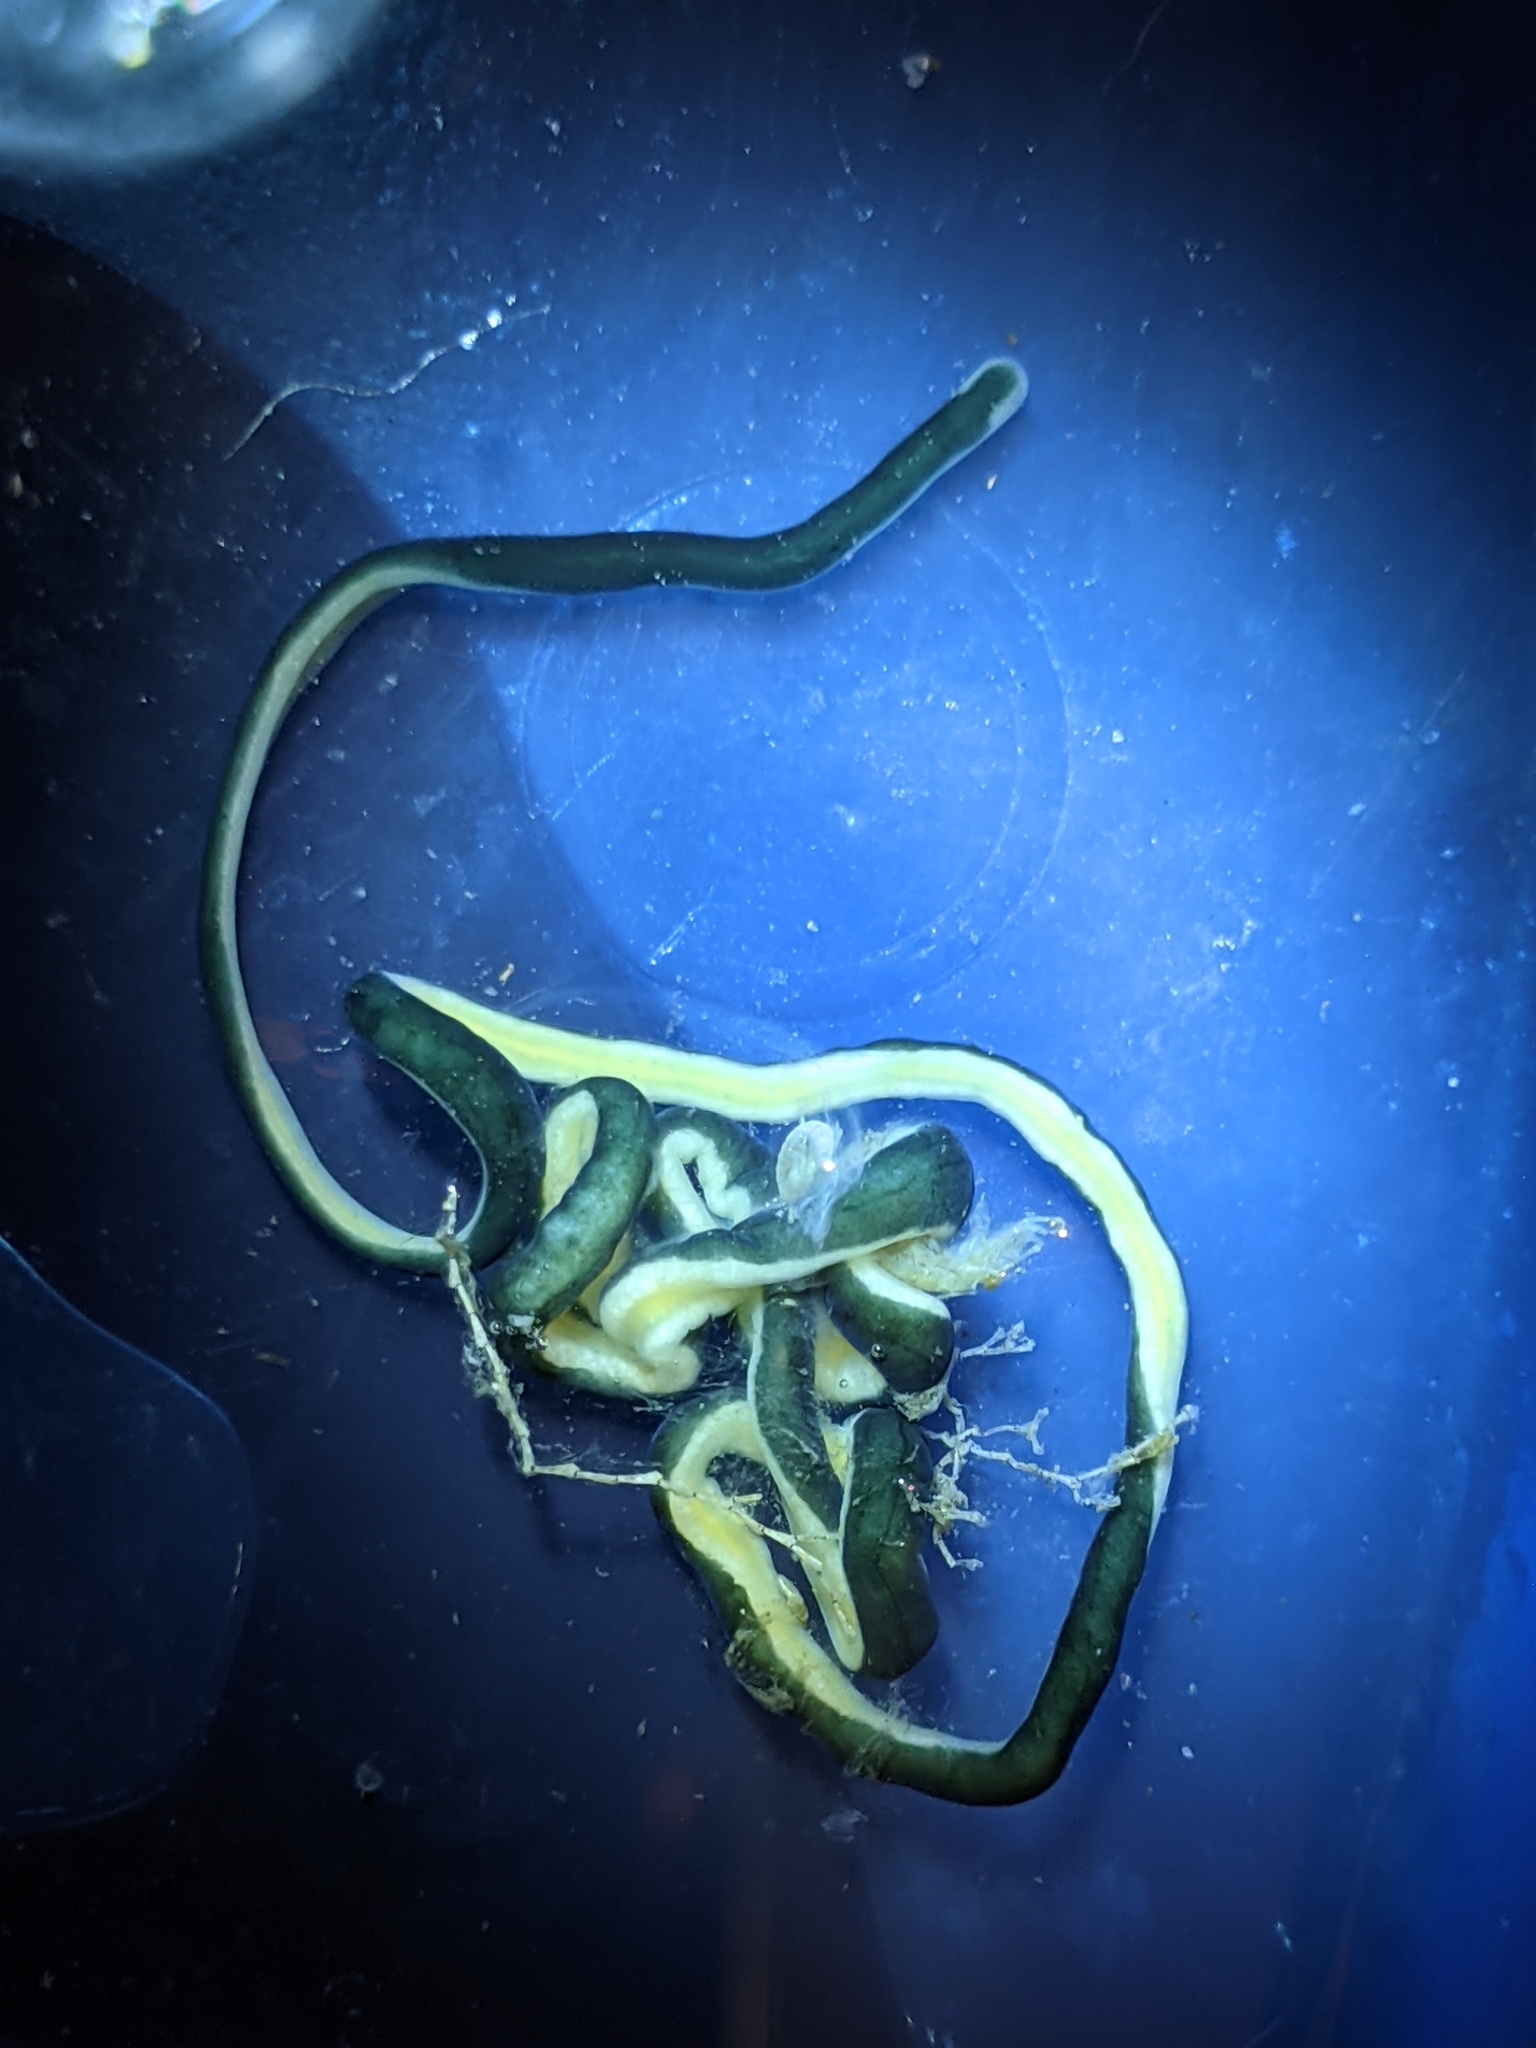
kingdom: Animalia
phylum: Nemertea
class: Hoplonemertea
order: Monostilifera
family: Emplectonematidae
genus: Emplectonema
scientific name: Emplectonema gracile
